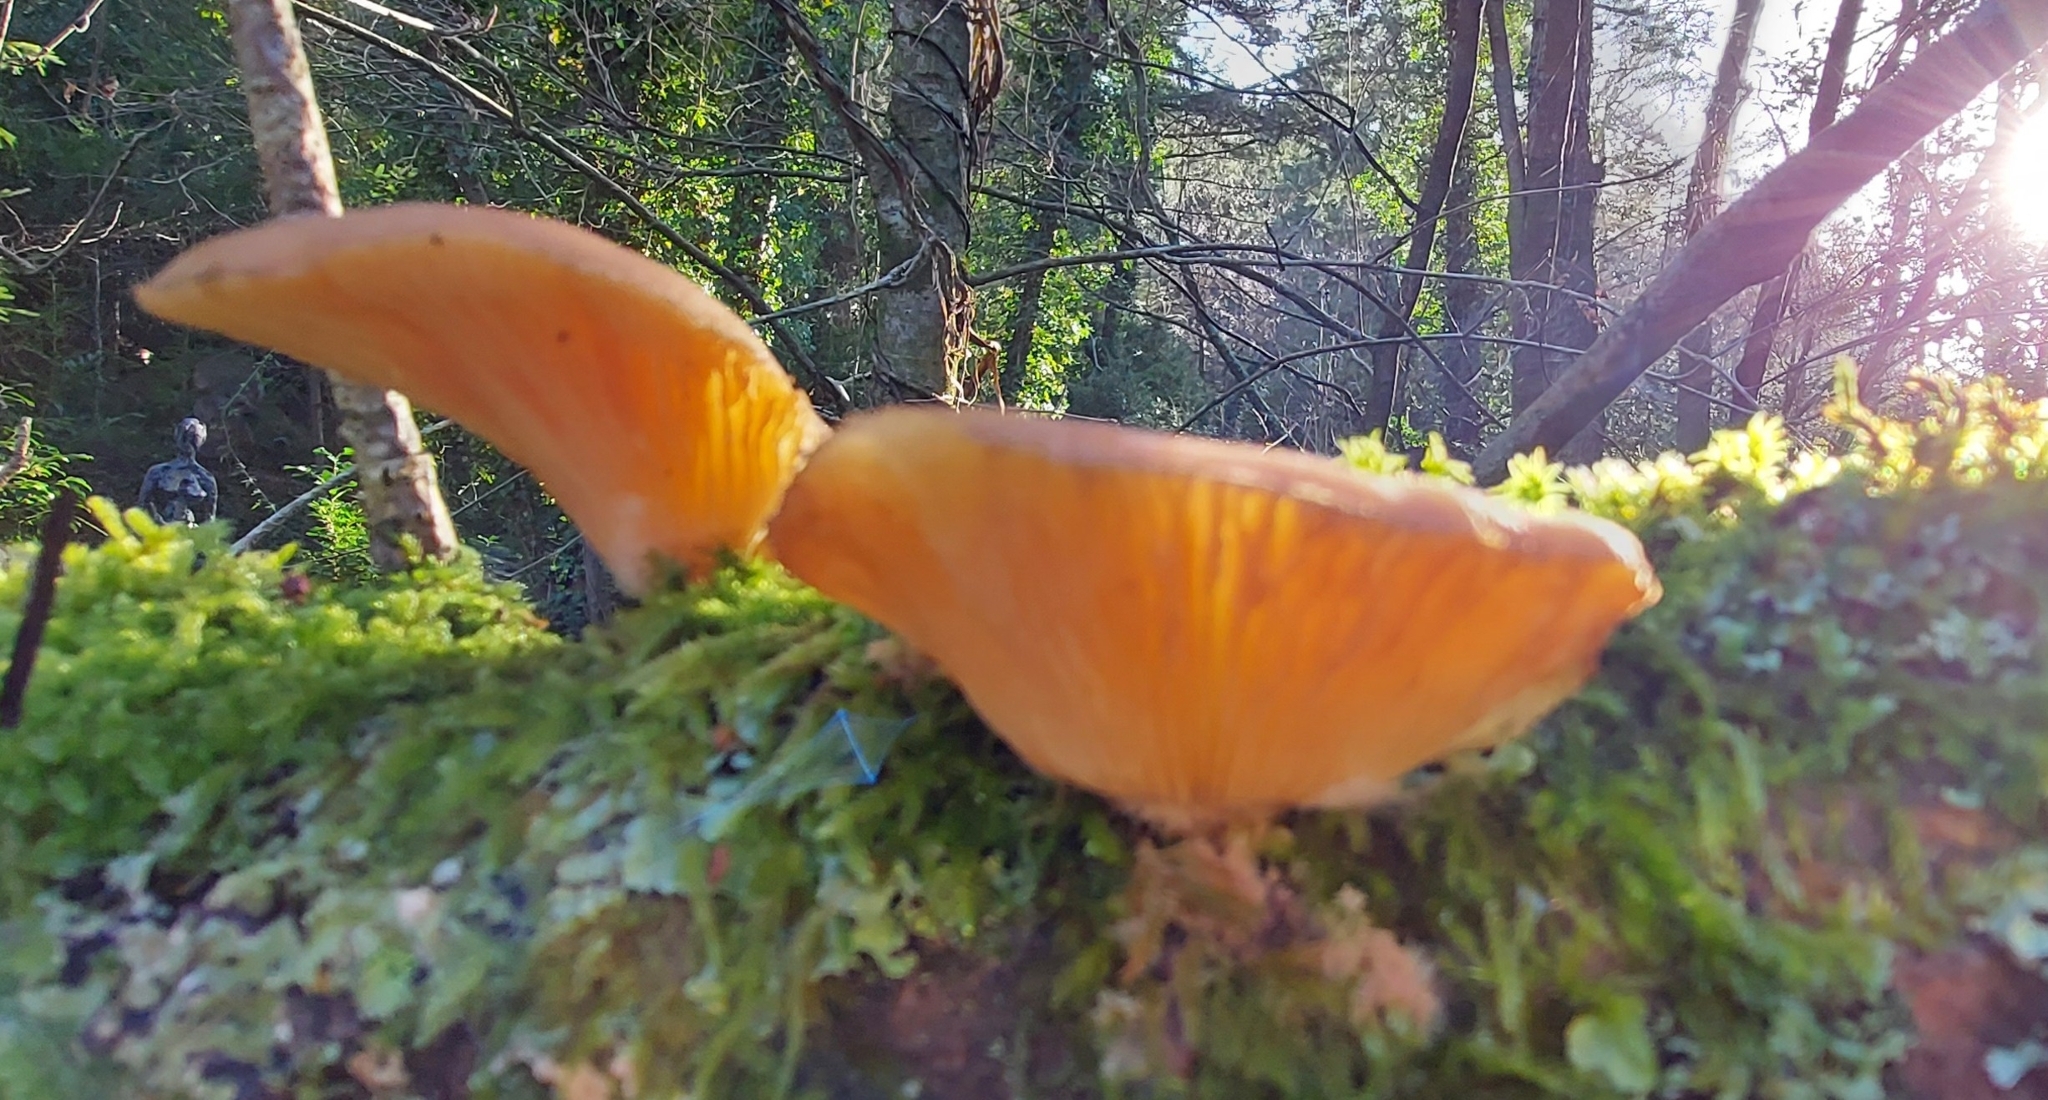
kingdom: Fungi
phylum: Basidiomycota
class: Agaricomycetes
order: Agaricales
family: Sarcomyxaceae
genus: Sarcomyxa
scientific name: Sarcomyxa serotina
